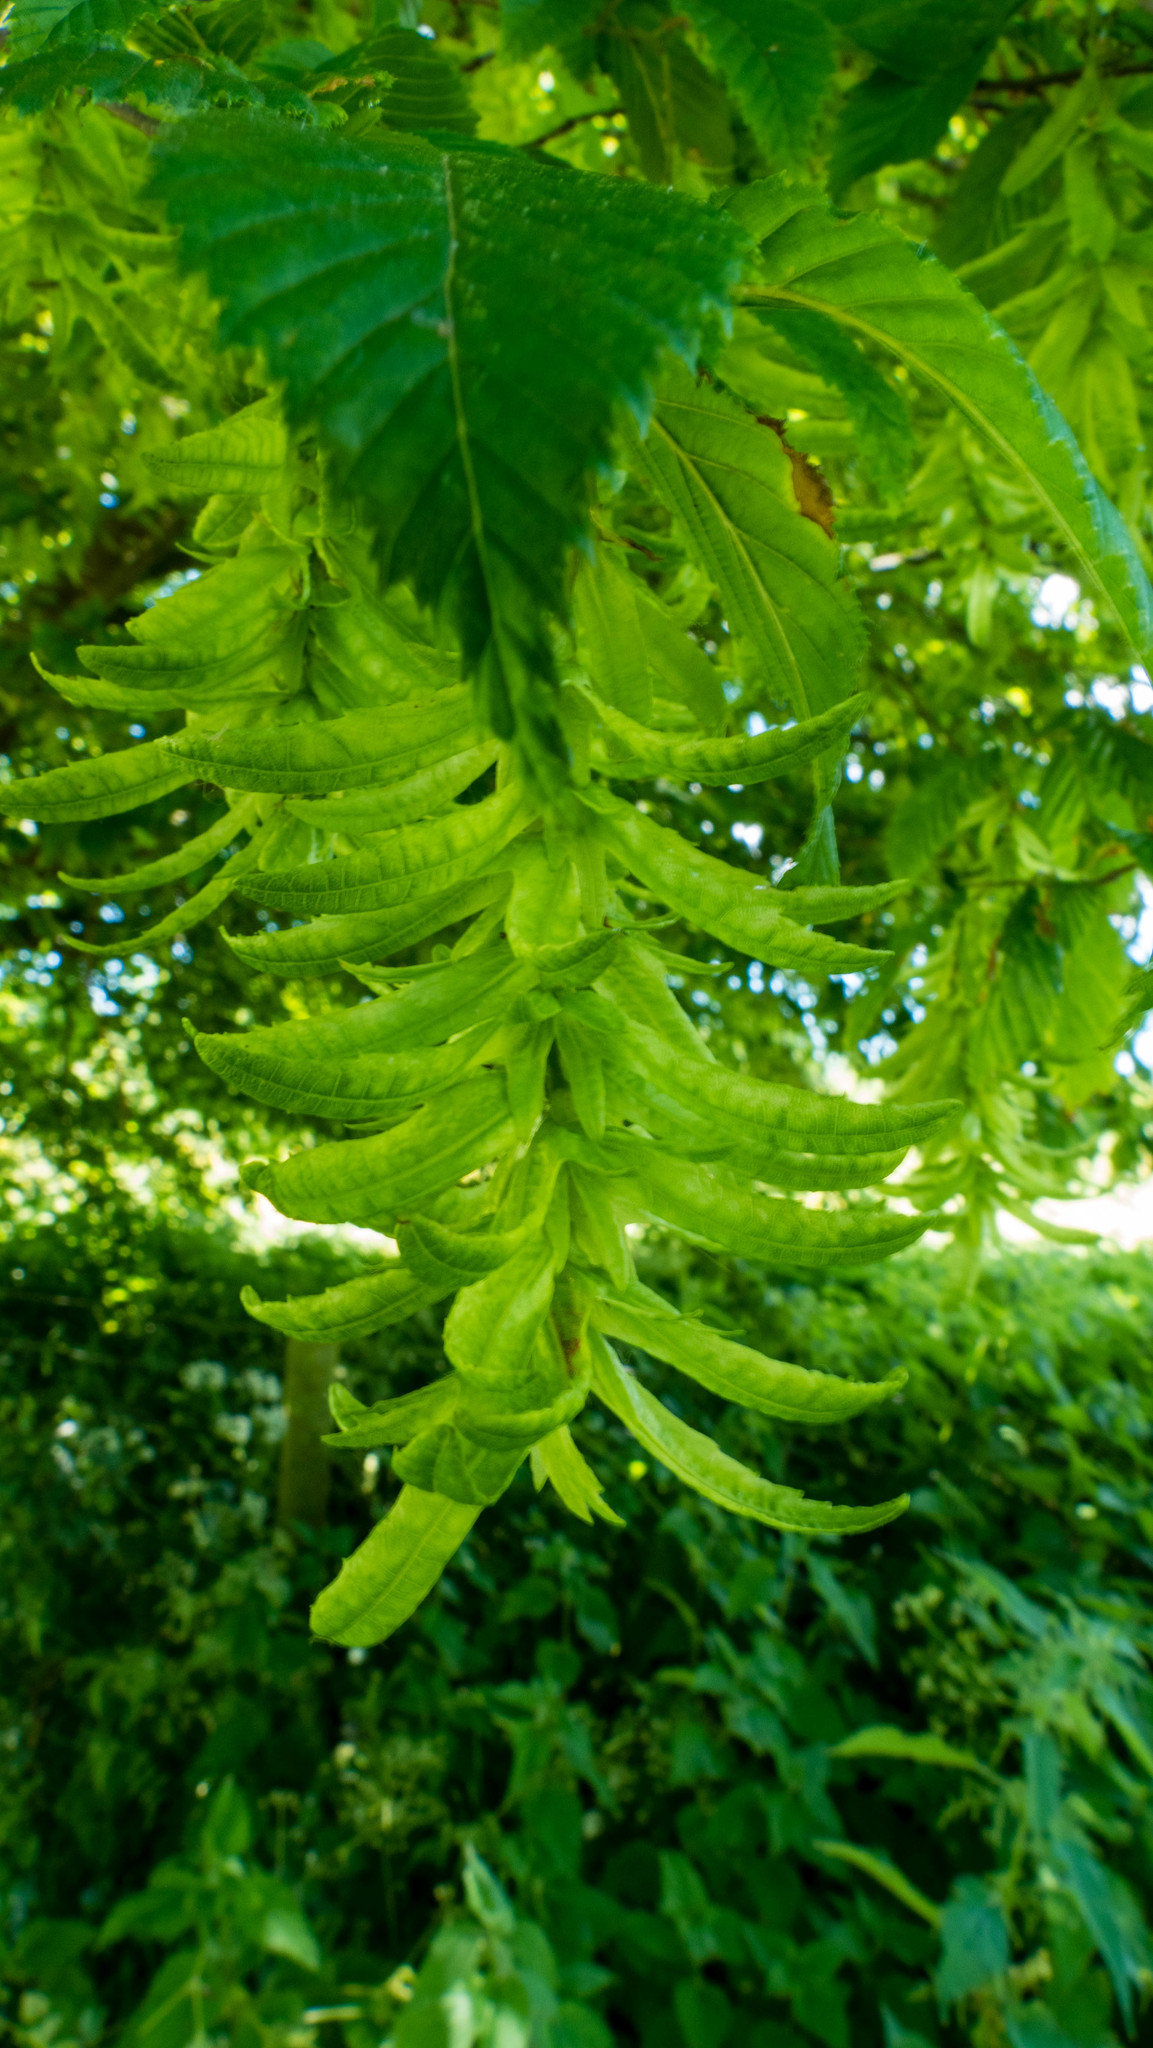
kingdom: Plantae
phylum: Tracheophyta
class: Magnoliopsida
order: Fagales
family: Betulaceae
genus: Carpinus
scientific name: Carpinus betulus
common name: Hornbeam
